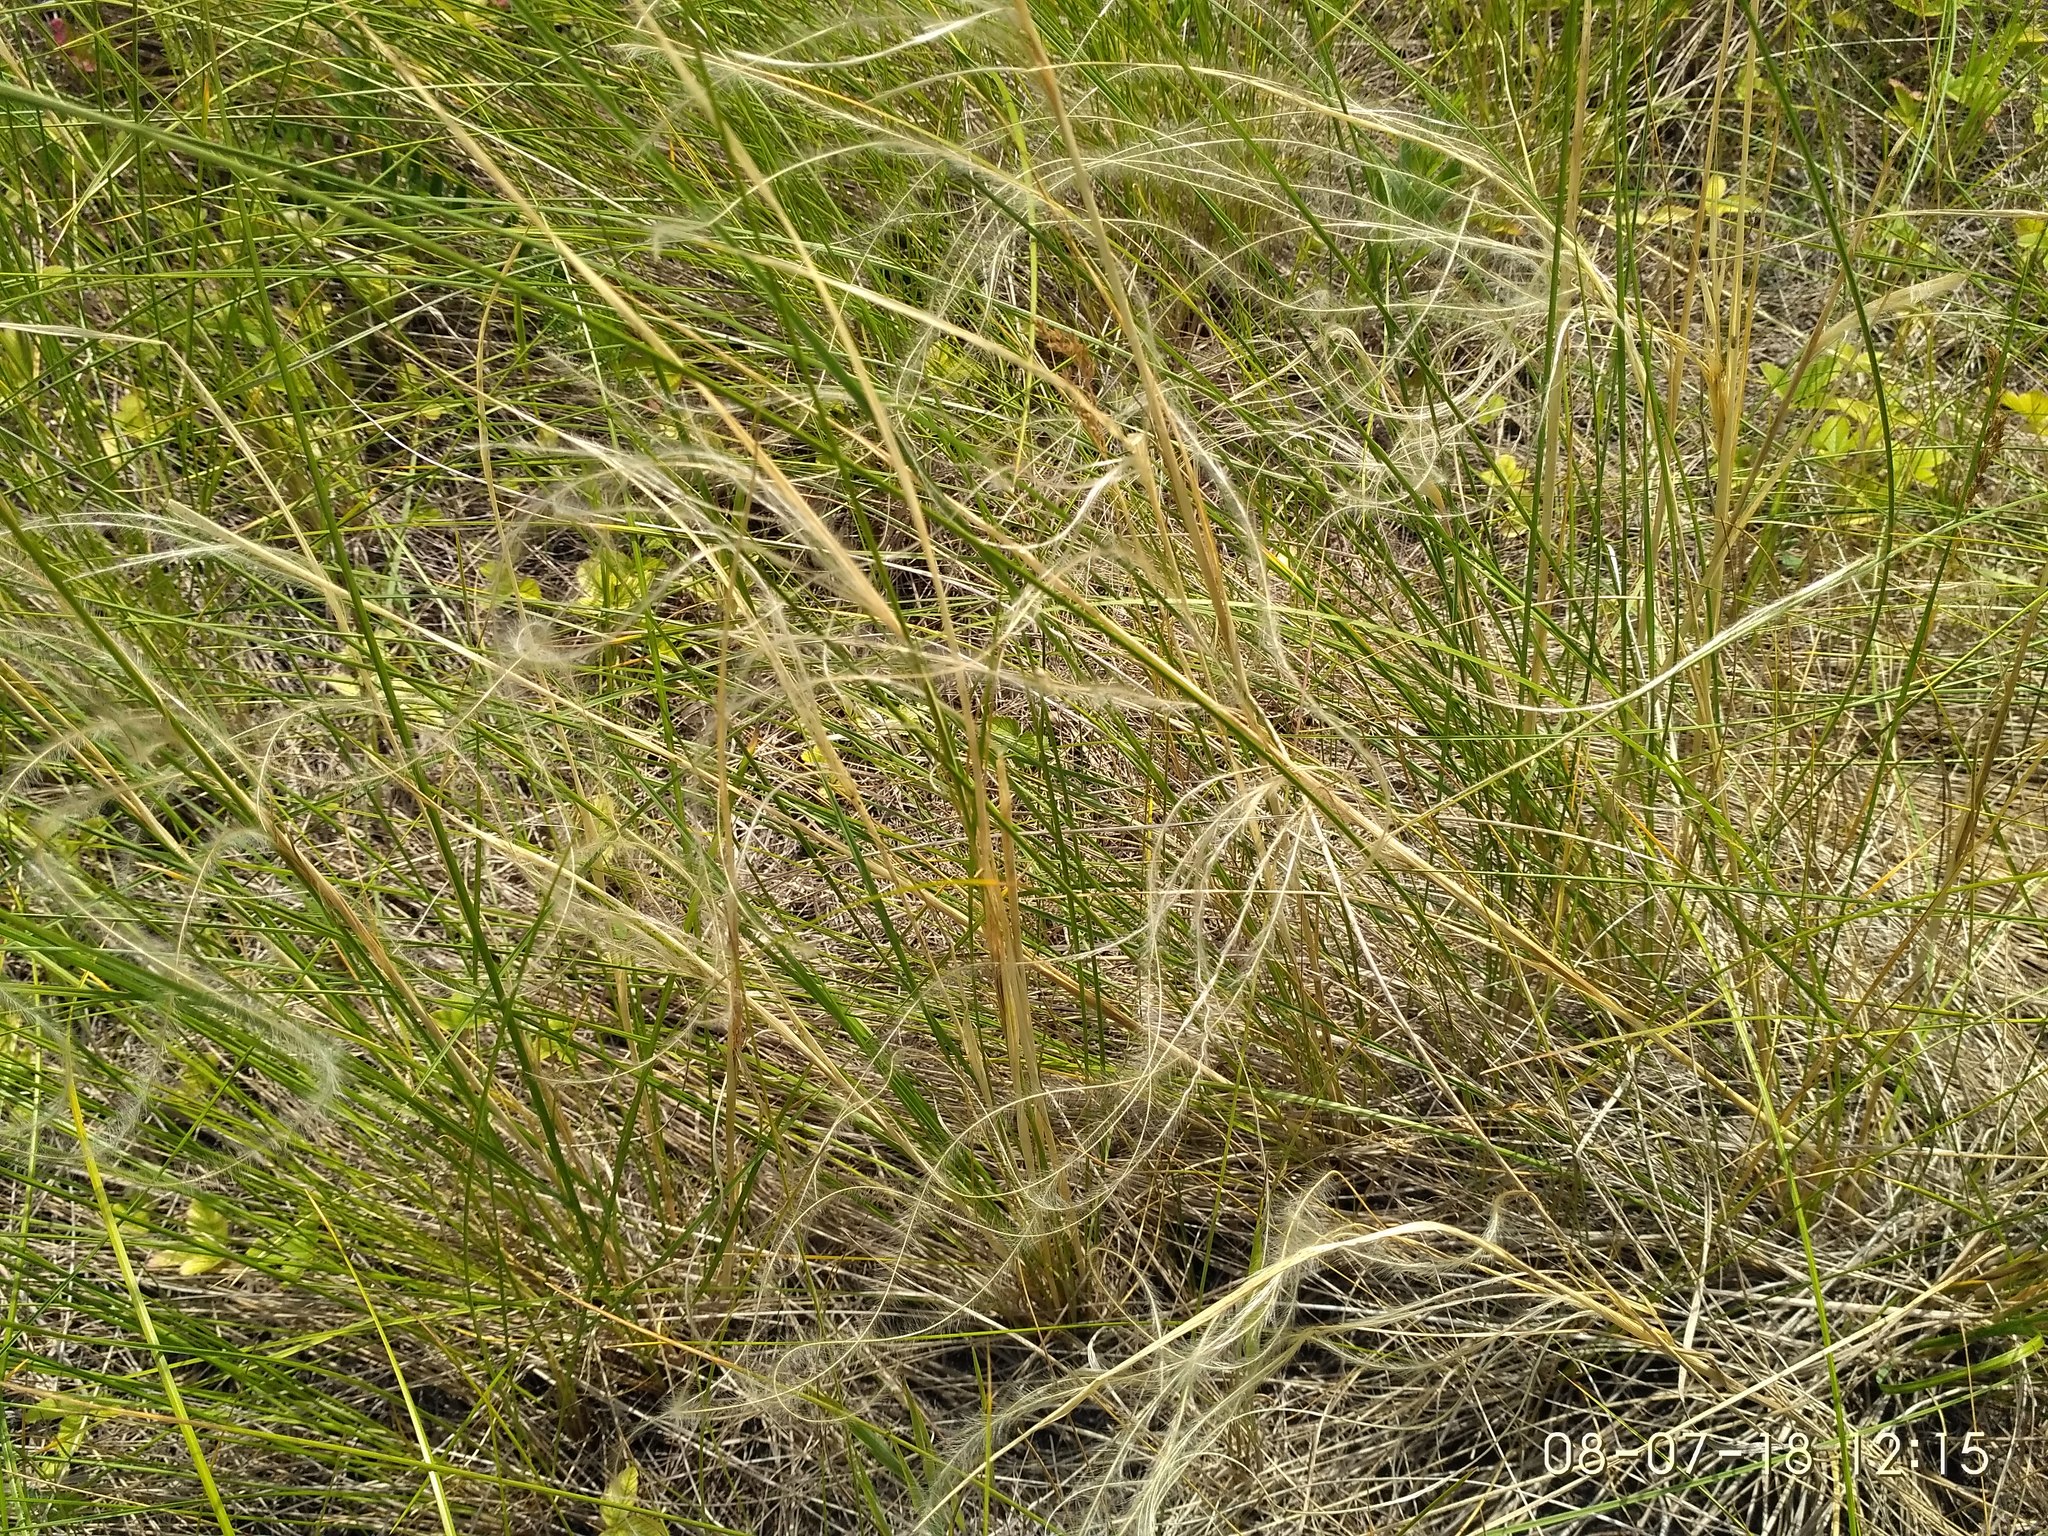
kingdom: Plantae
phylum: Tracheophyta
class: Liliopsida
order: Poales
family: Poaceae
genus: Stipa
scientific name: Stipa pennata
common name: European feather grass
